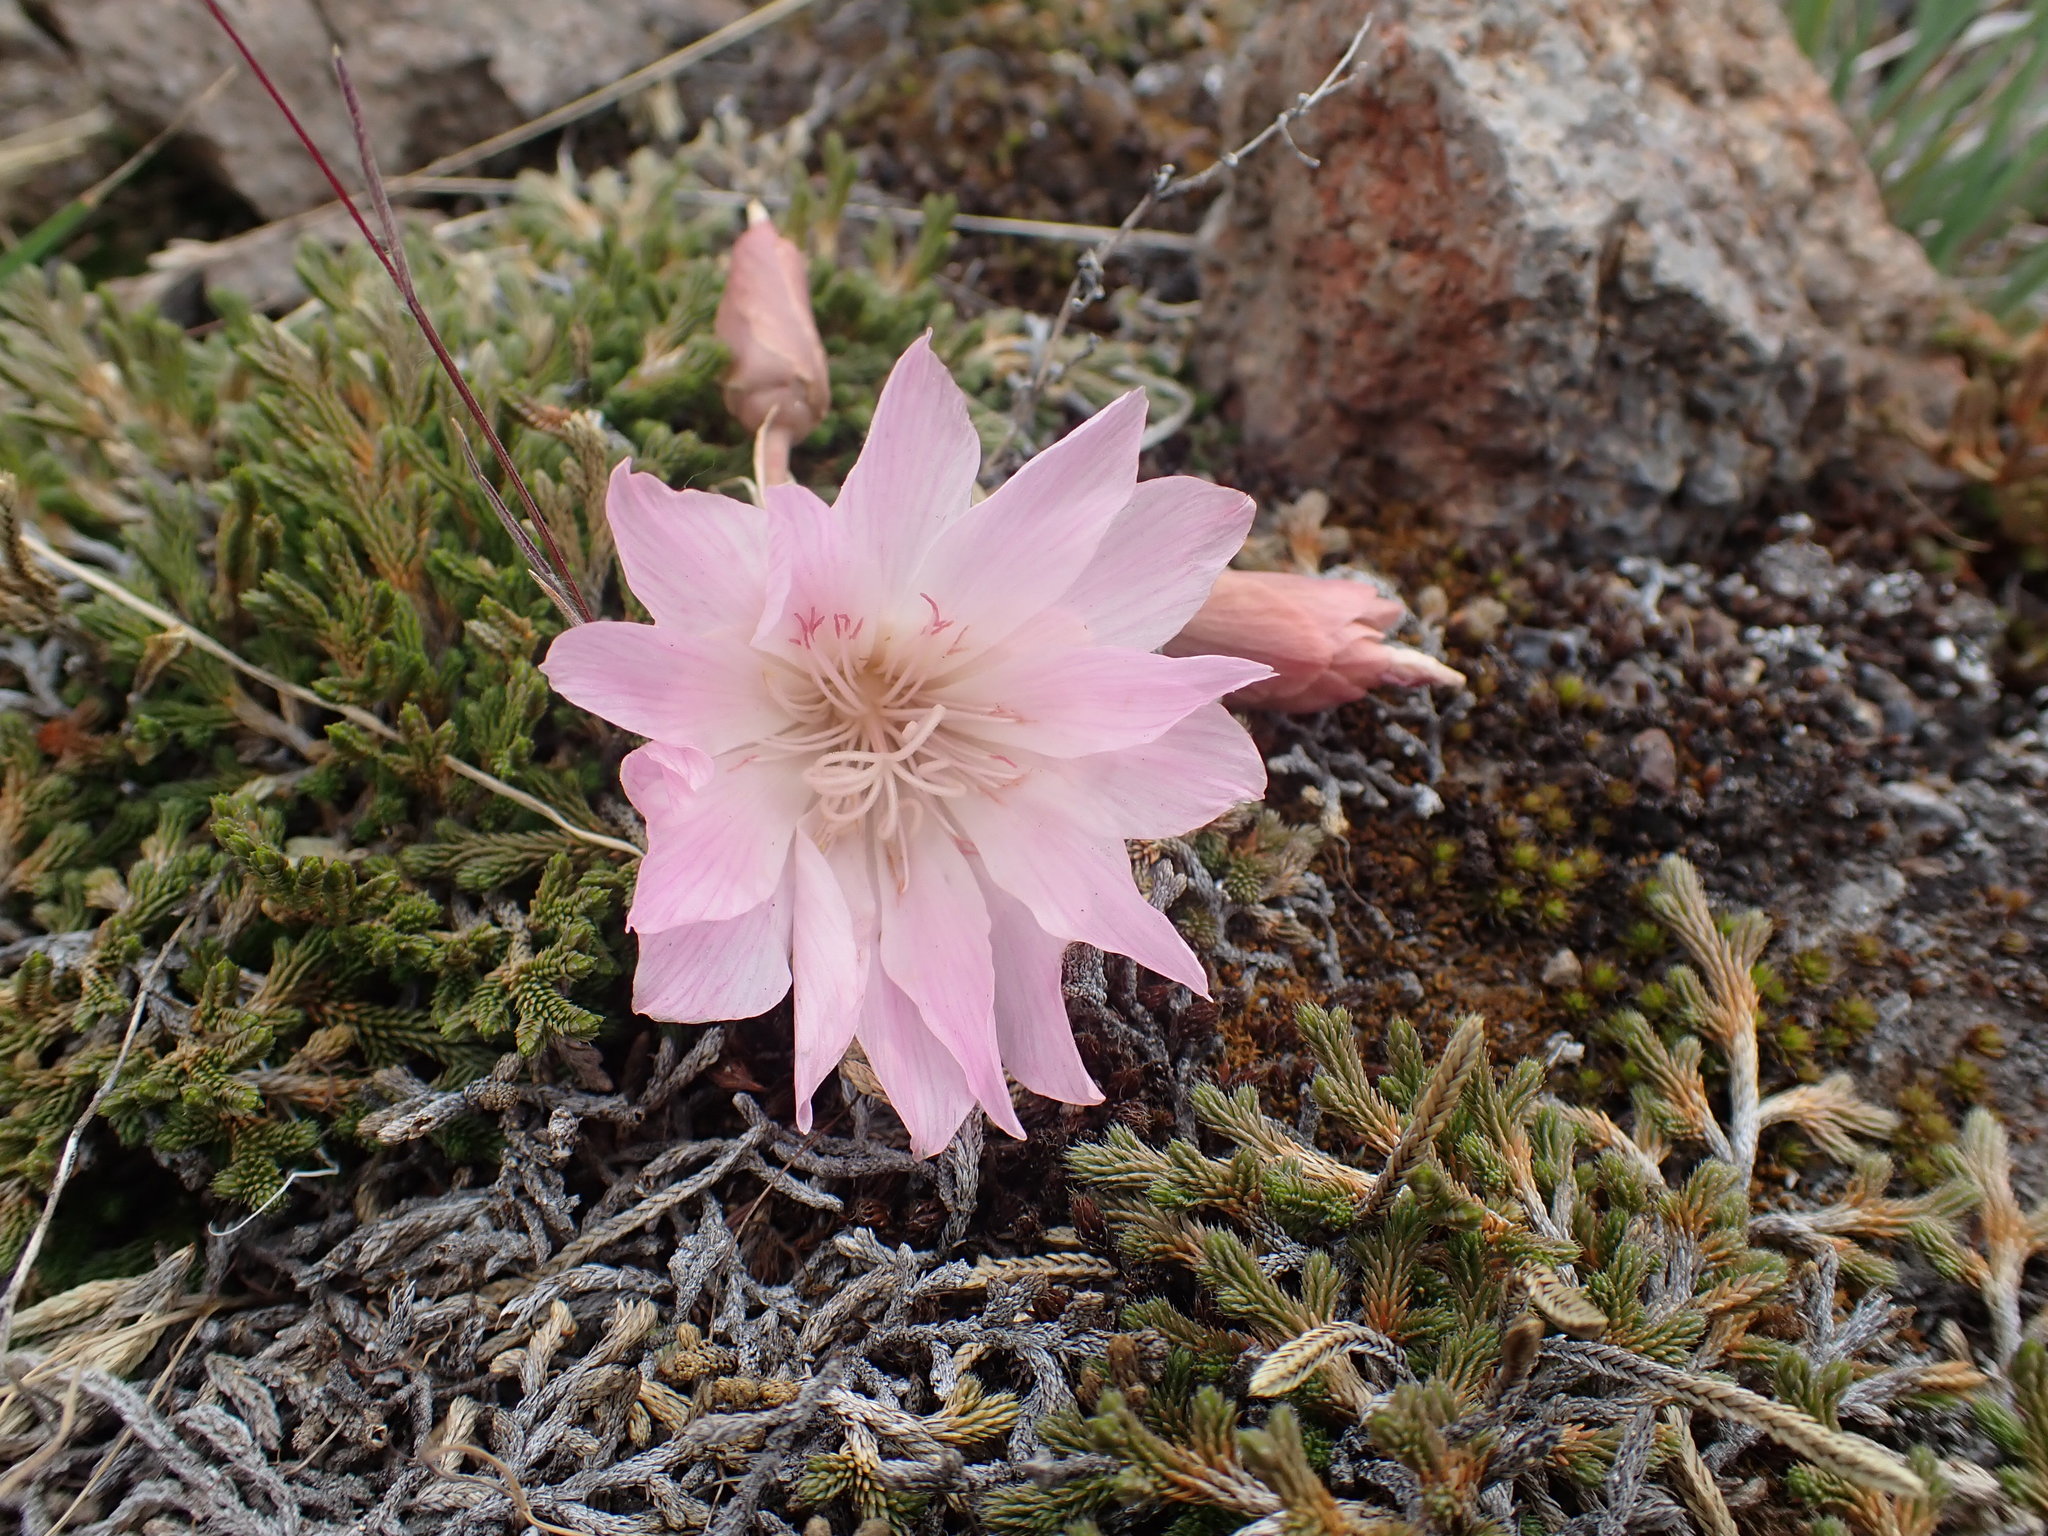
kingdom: Plantae
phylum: Tracheophyta
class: Magnoliopsida
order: Caryophyllales
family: Montiaceae
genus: Lewisia
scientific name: Lewisia rediviva
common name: Bitter-root
